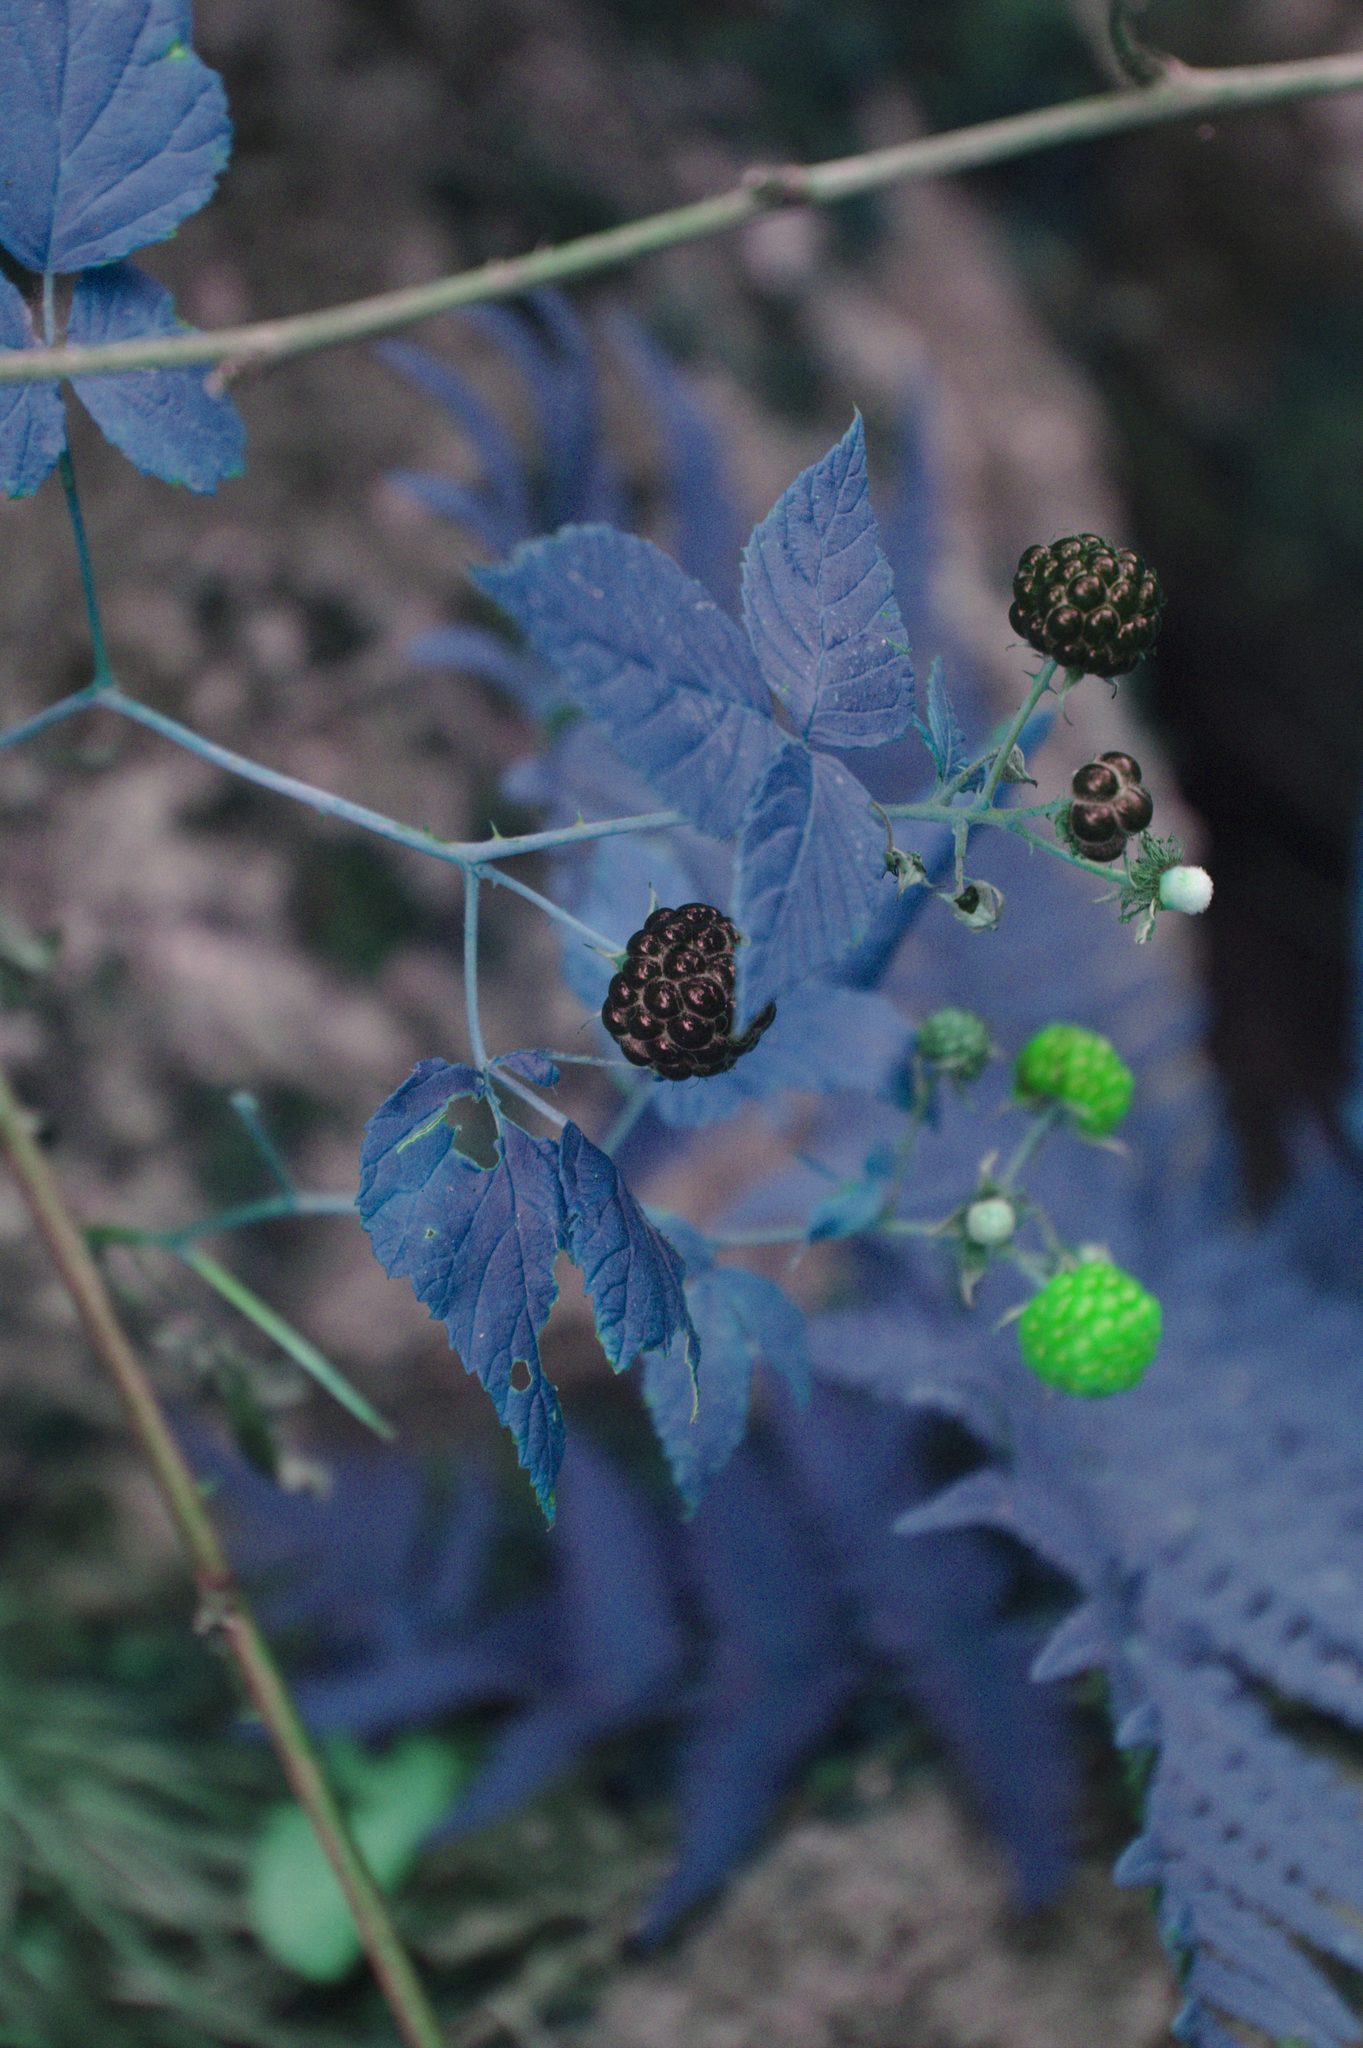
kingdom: Plantae
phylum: Tracheophyta
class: Magnoliopsida
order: Rosales
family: Rosaceae
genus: Rubus
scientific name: Rubus occidentalis
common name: Black raspberry
